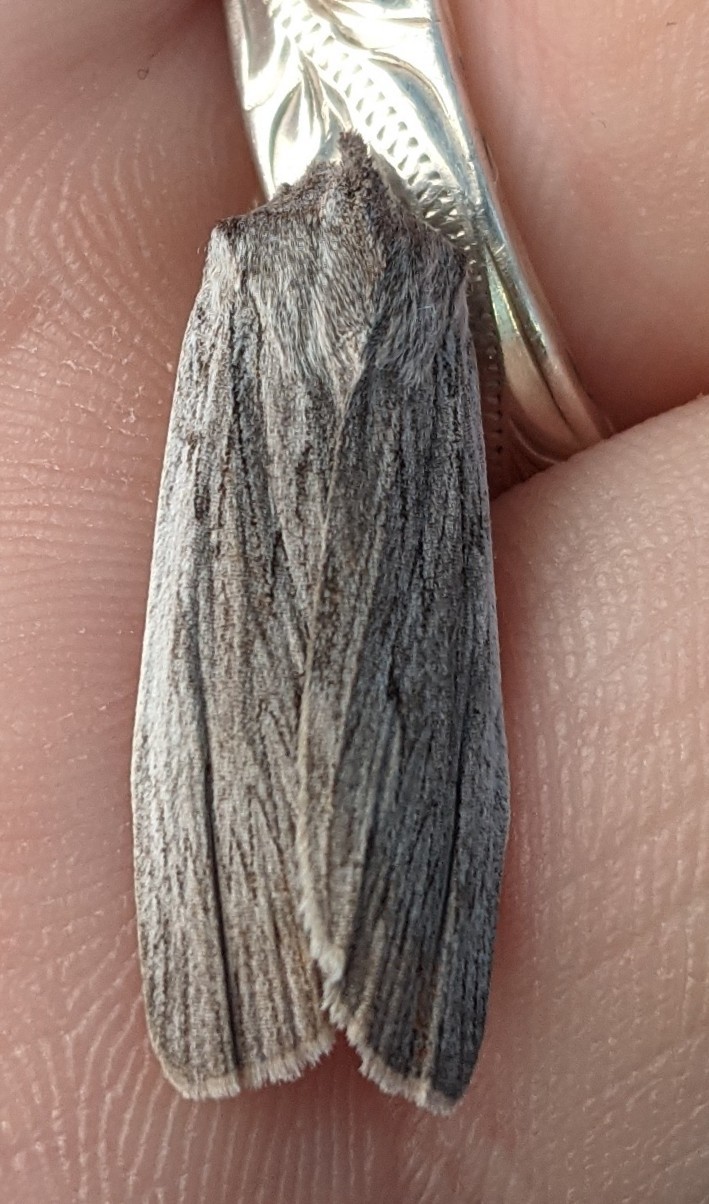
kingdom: Animalia
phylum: Arthropoda
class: Insecta
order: Lepidoptera
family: Noctuidae
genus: Lithophane
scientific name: Lithophane fagina
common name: Hoary pinion moth
